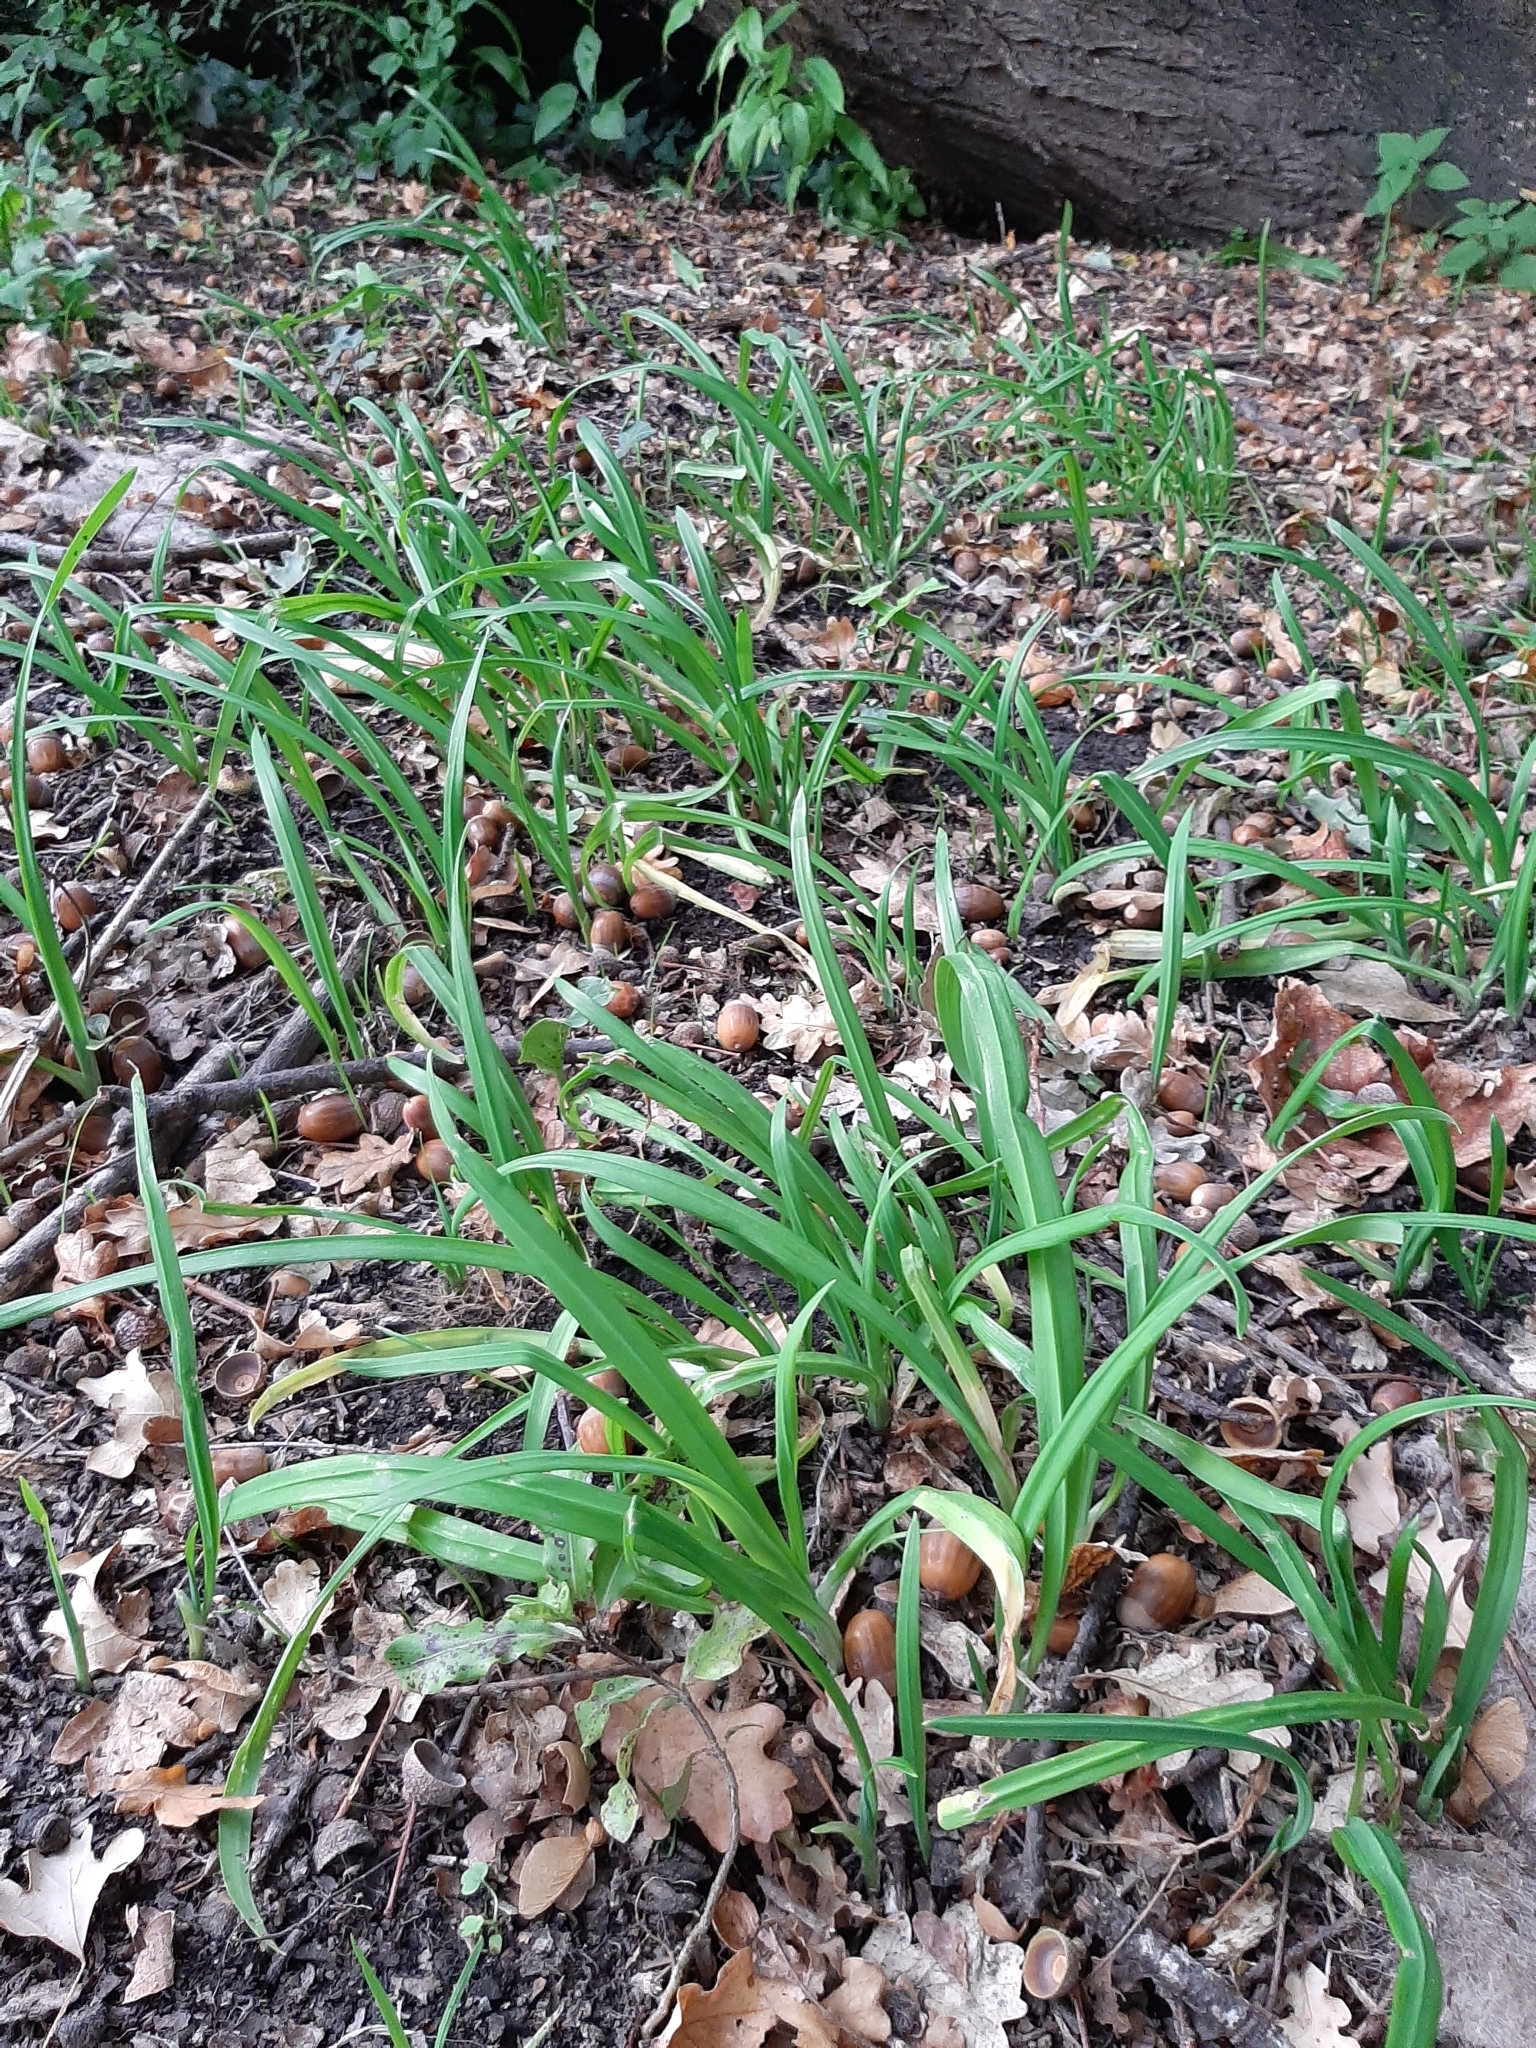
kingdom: Plantae
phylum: Tracheophyta
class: Liliopsida
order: Asparagales
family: Amaryllidaceae
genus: Allium
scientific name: Allium triquetrum
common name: Three-cornered garlic
